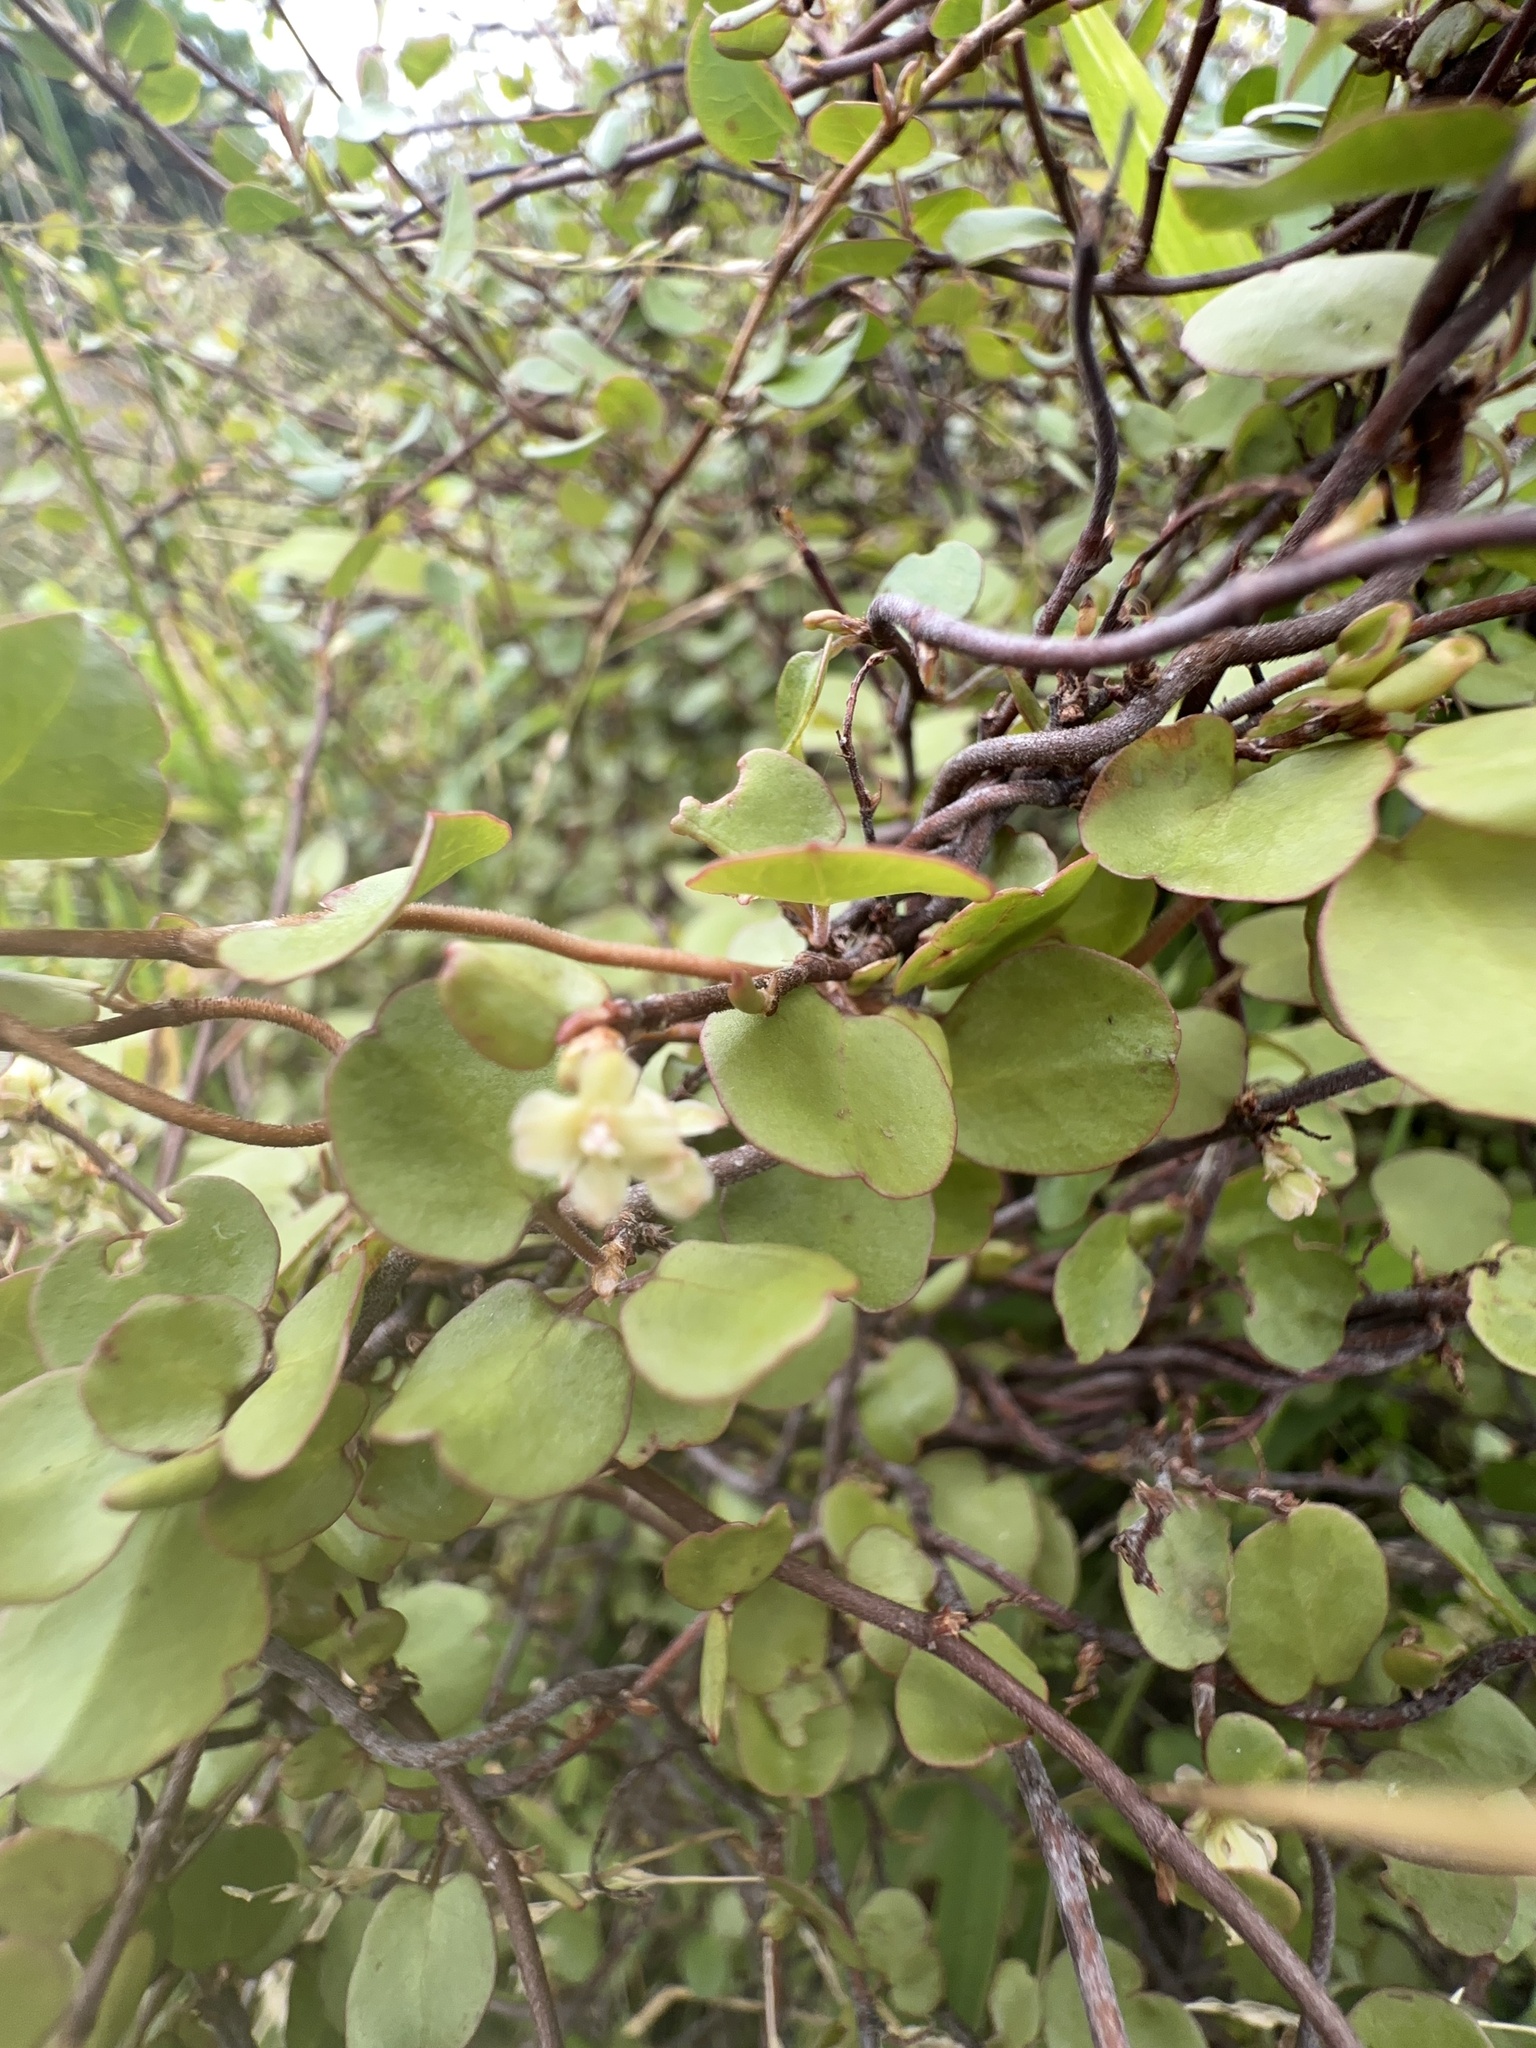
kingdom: Plantae
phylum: Tracheophyta
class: Magnoliopsida
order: Caryophyllales
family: Polygonaceae
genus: Muehlenbeckia
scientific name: Muehlenbeckia complexa
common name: Wireplant
